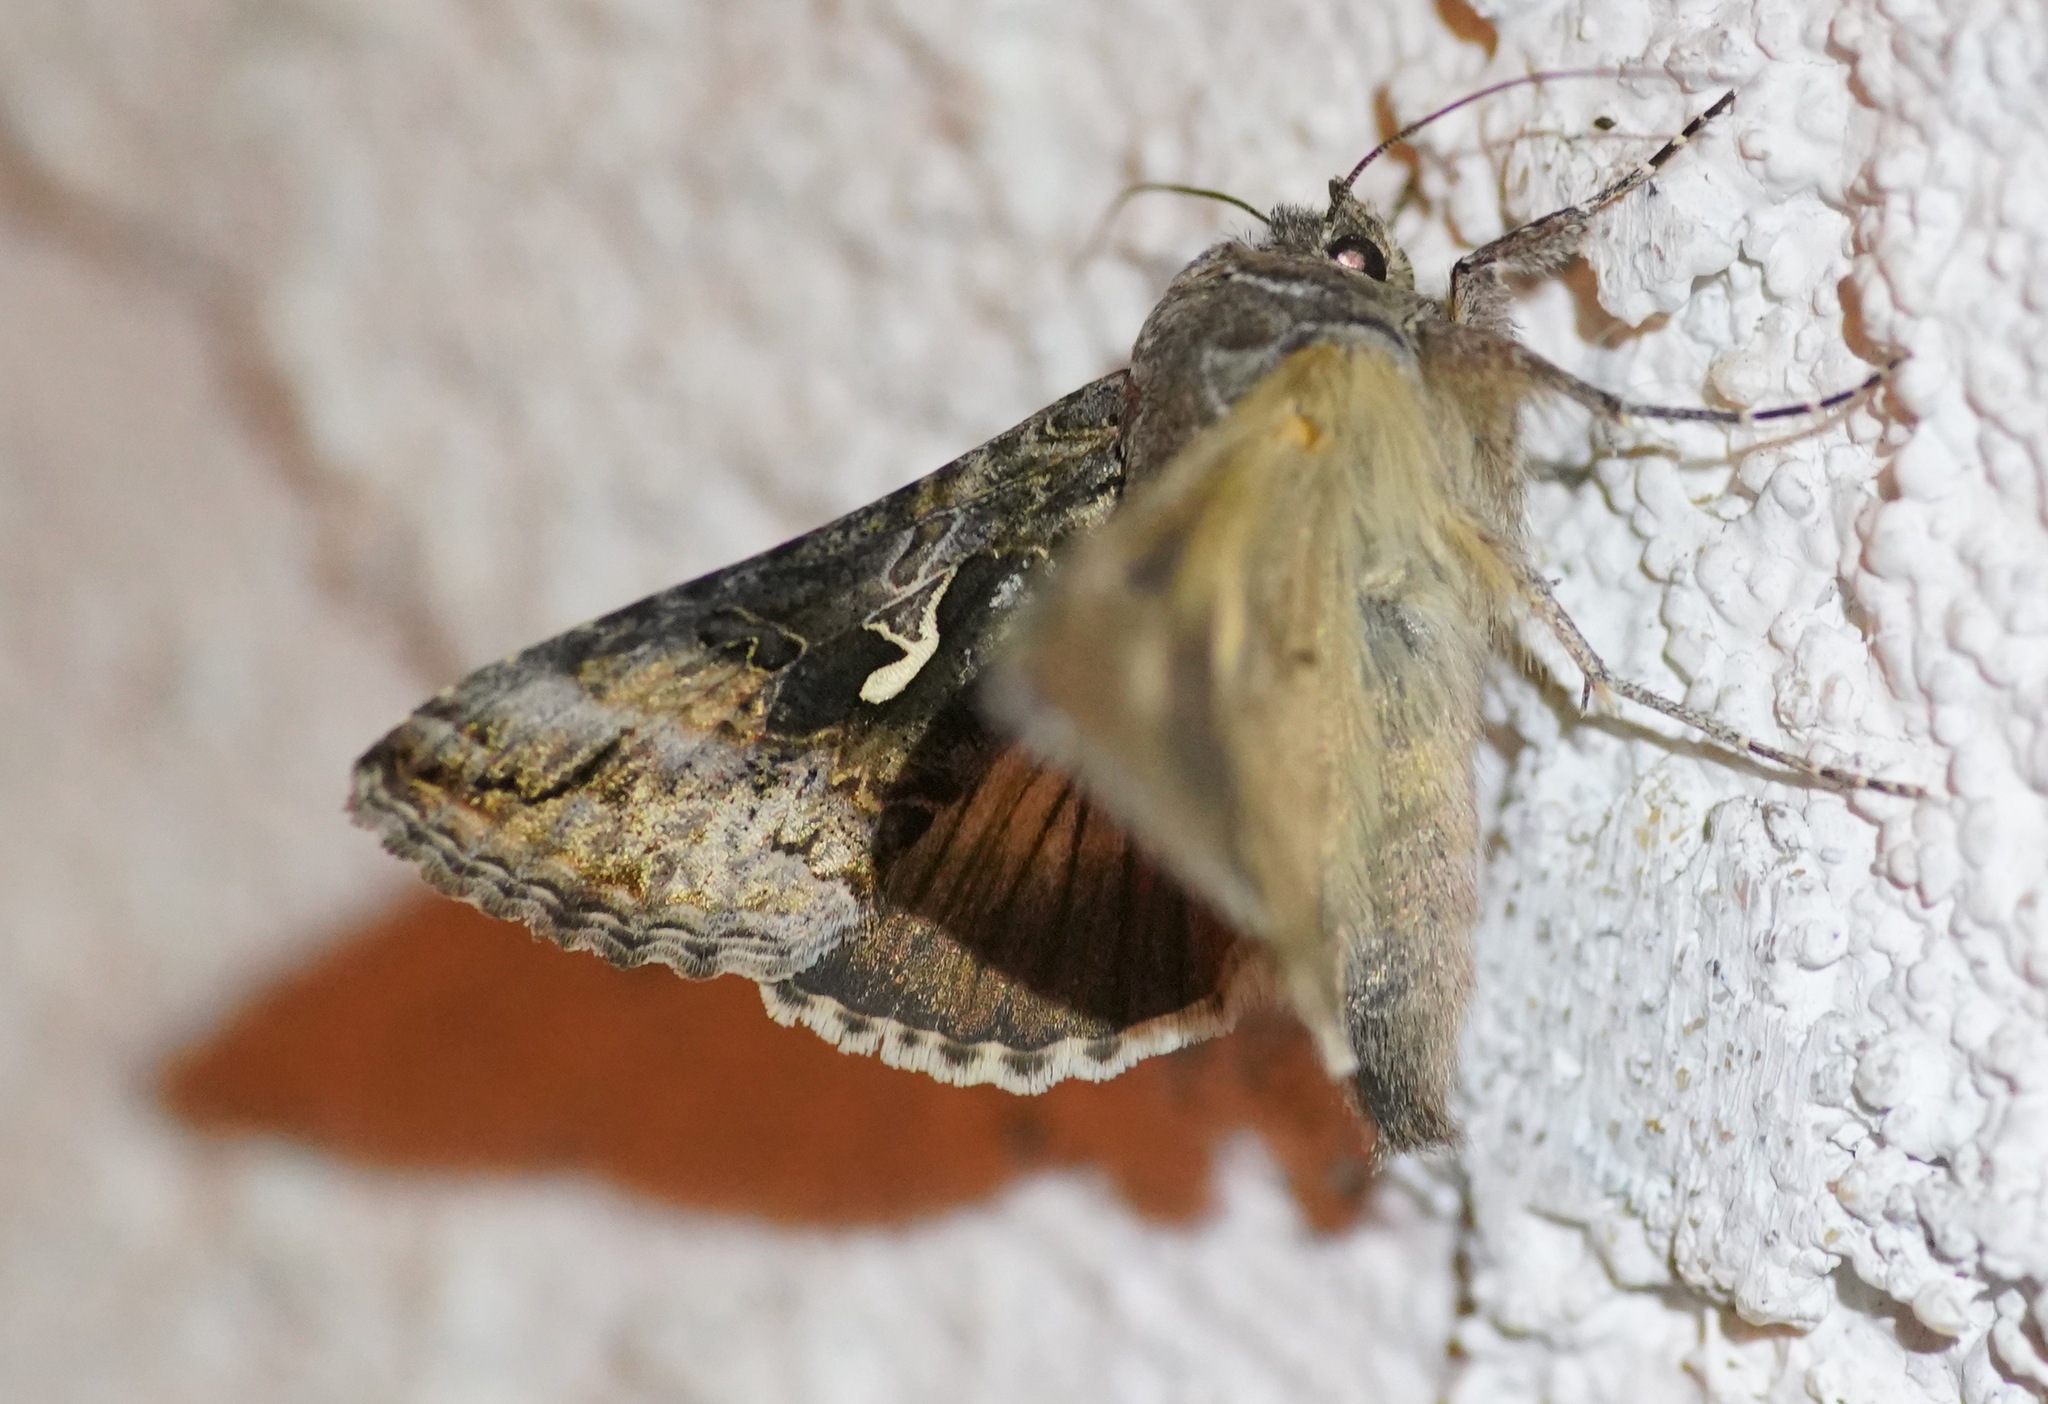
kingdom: Animalia
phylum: Arthropoda
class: Insecta
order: Lepidoptera
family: Noctuidae
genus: Autographa
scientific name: Autographa californica
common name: Alfalfa looper
